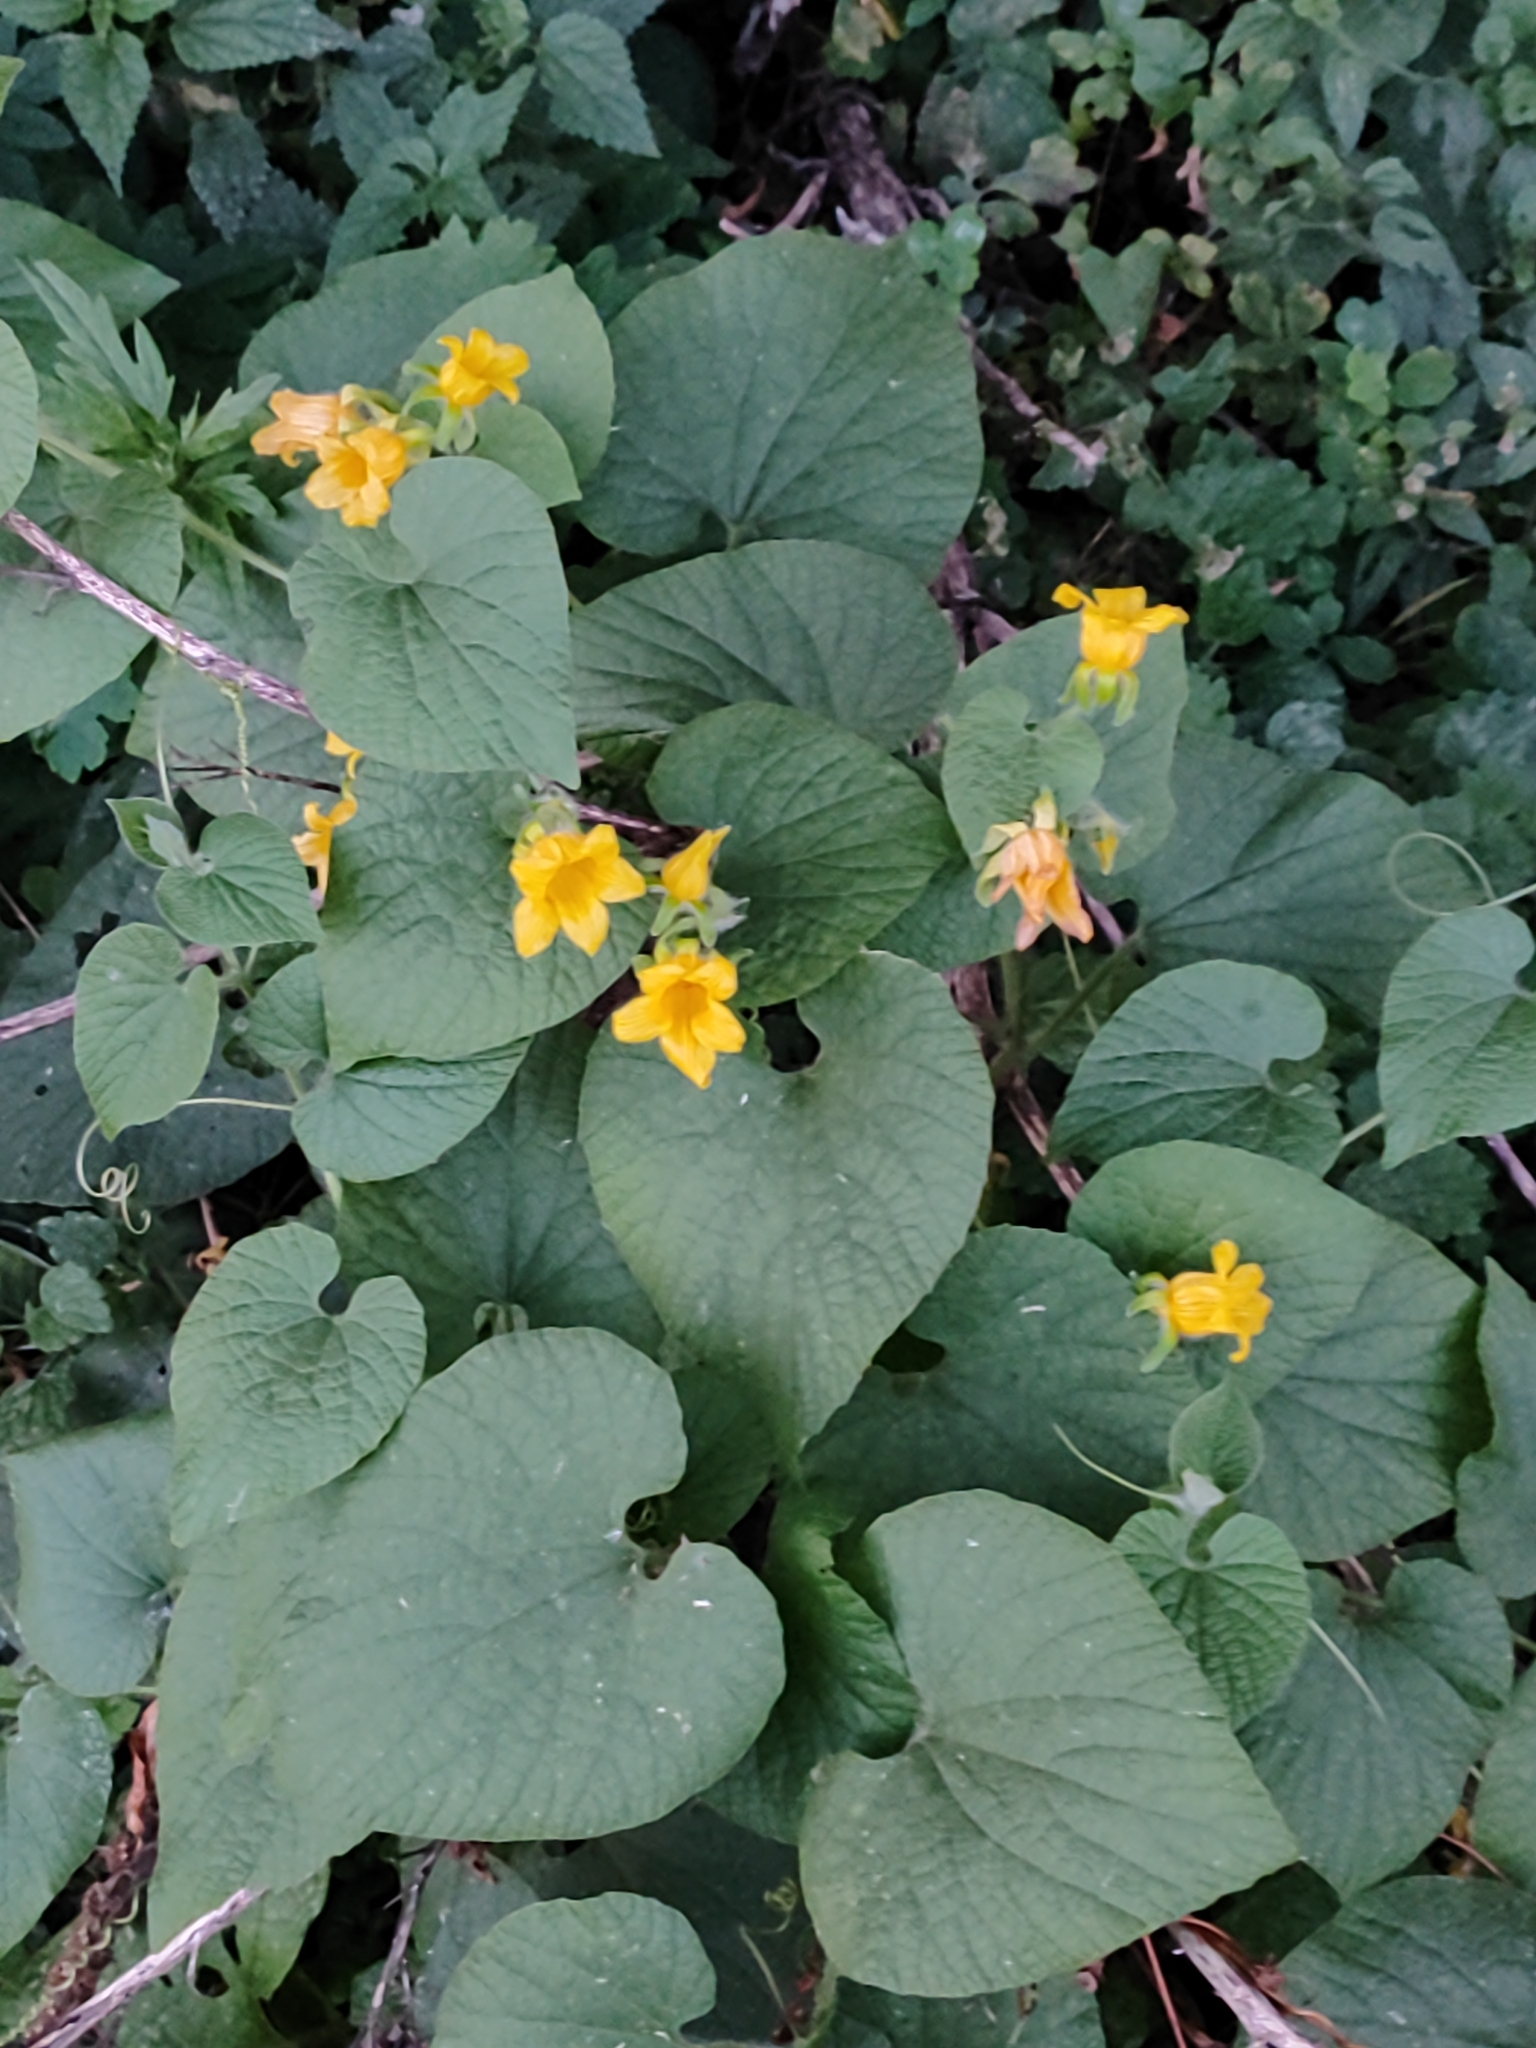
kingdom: Plantae
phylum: Tracheophyta
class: Magnoliopsida
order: Cucurbitales
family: Cucurbitaceae
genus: Thladiantha
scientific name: Thladiantha dubia
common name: Manchu tubergourd
